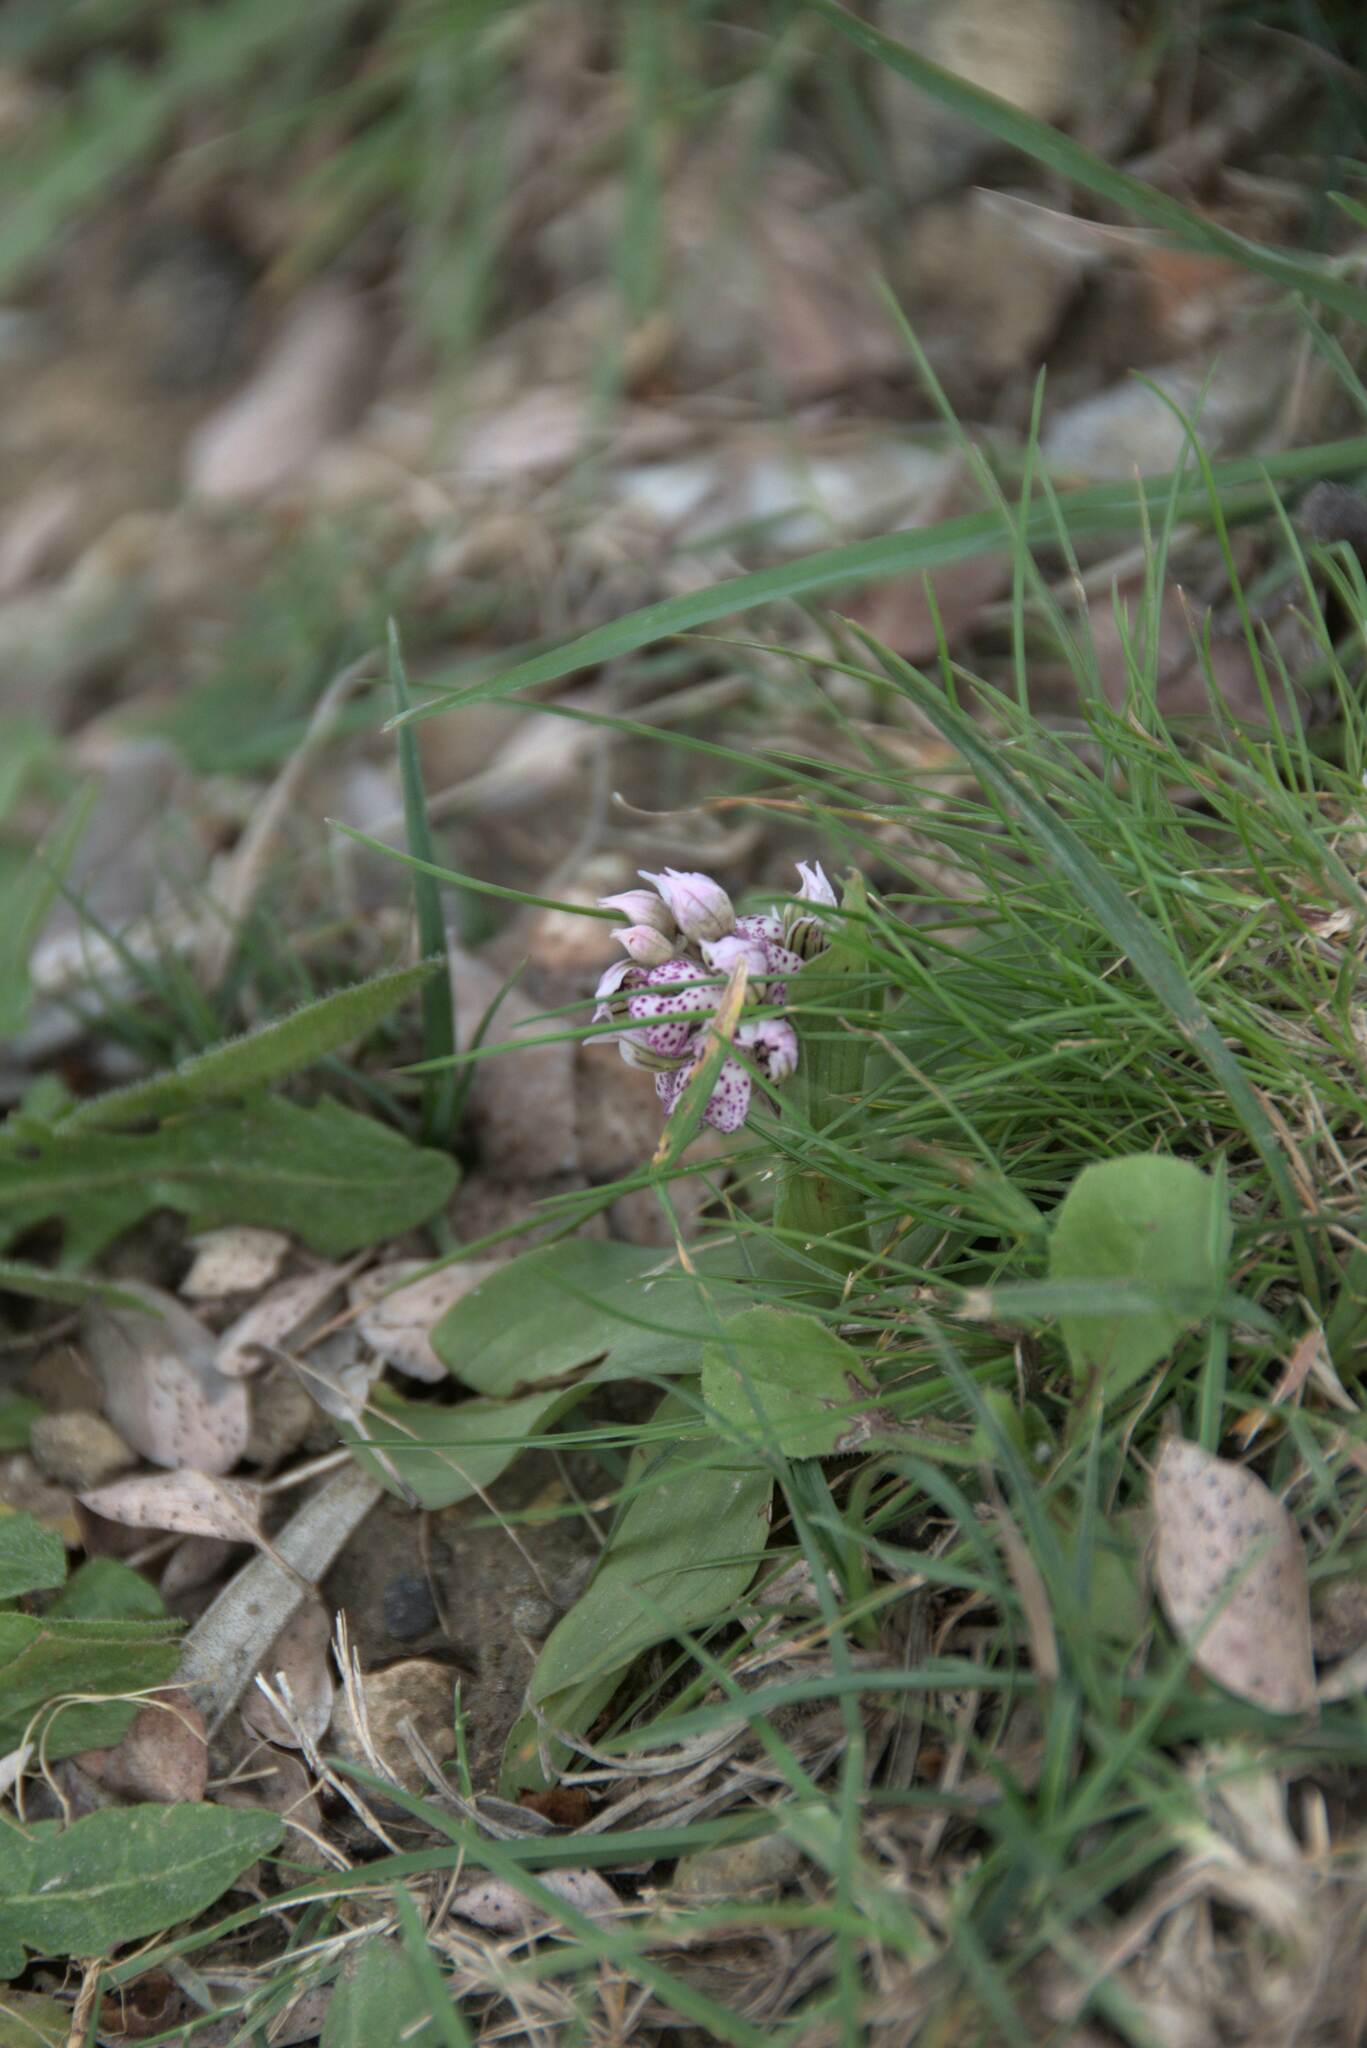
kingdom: Plantae
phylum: Tracheophyta
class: Liliopsida
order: Asparagales
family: Orchidaceae
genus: Neotinea
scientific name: Neotinea lactea
